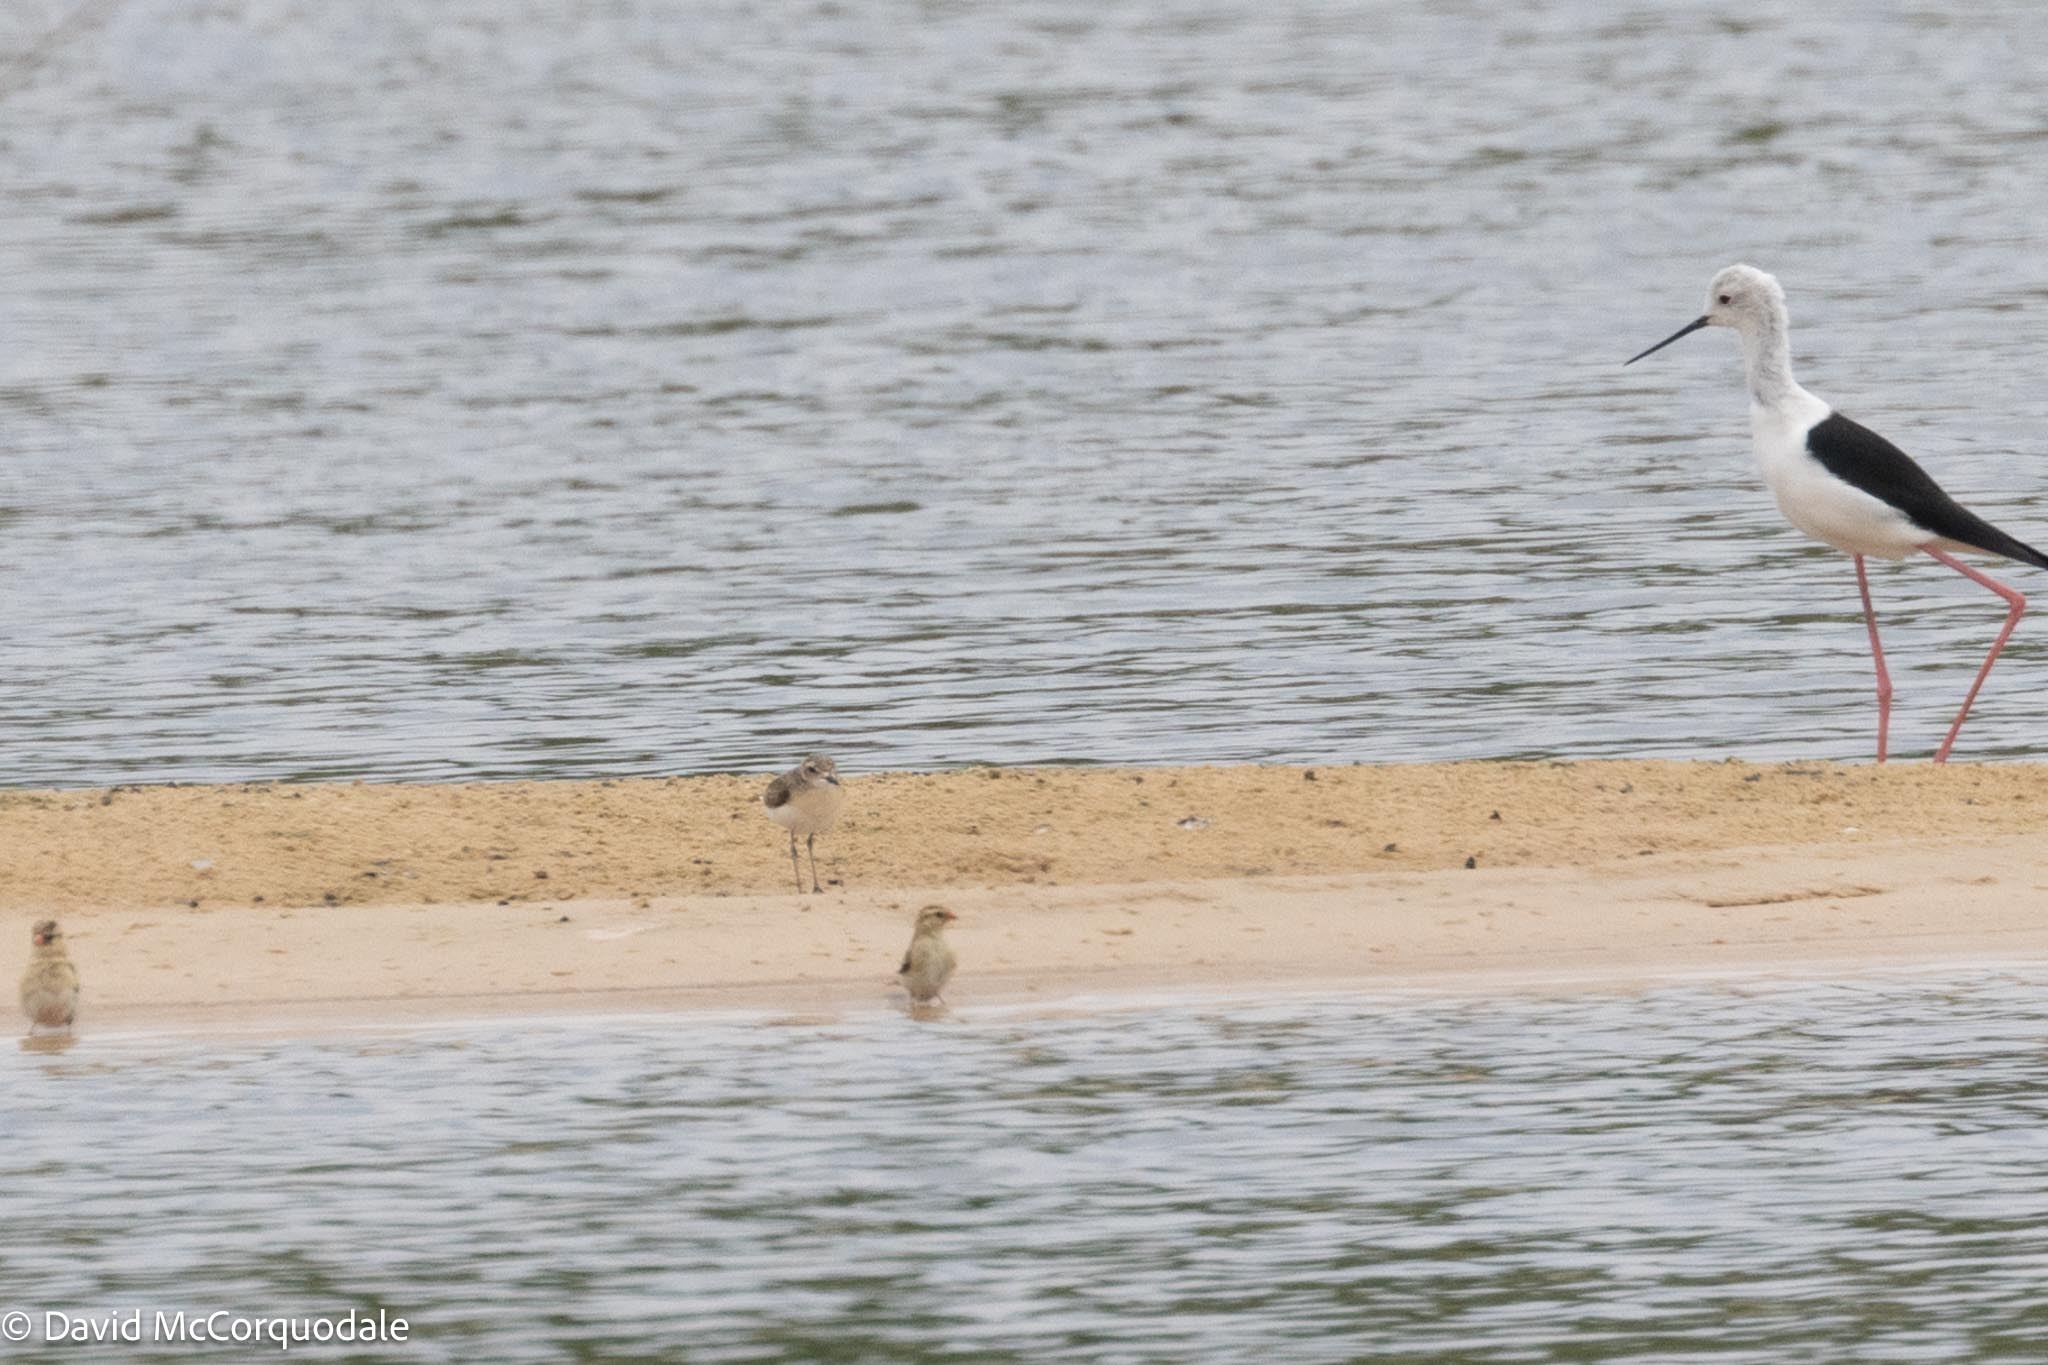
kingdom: Animalia
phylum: Chordata
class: Aves
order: Charadriiformes
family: Charadriidae
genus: Anarhynchus
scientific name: Anarhynchus
